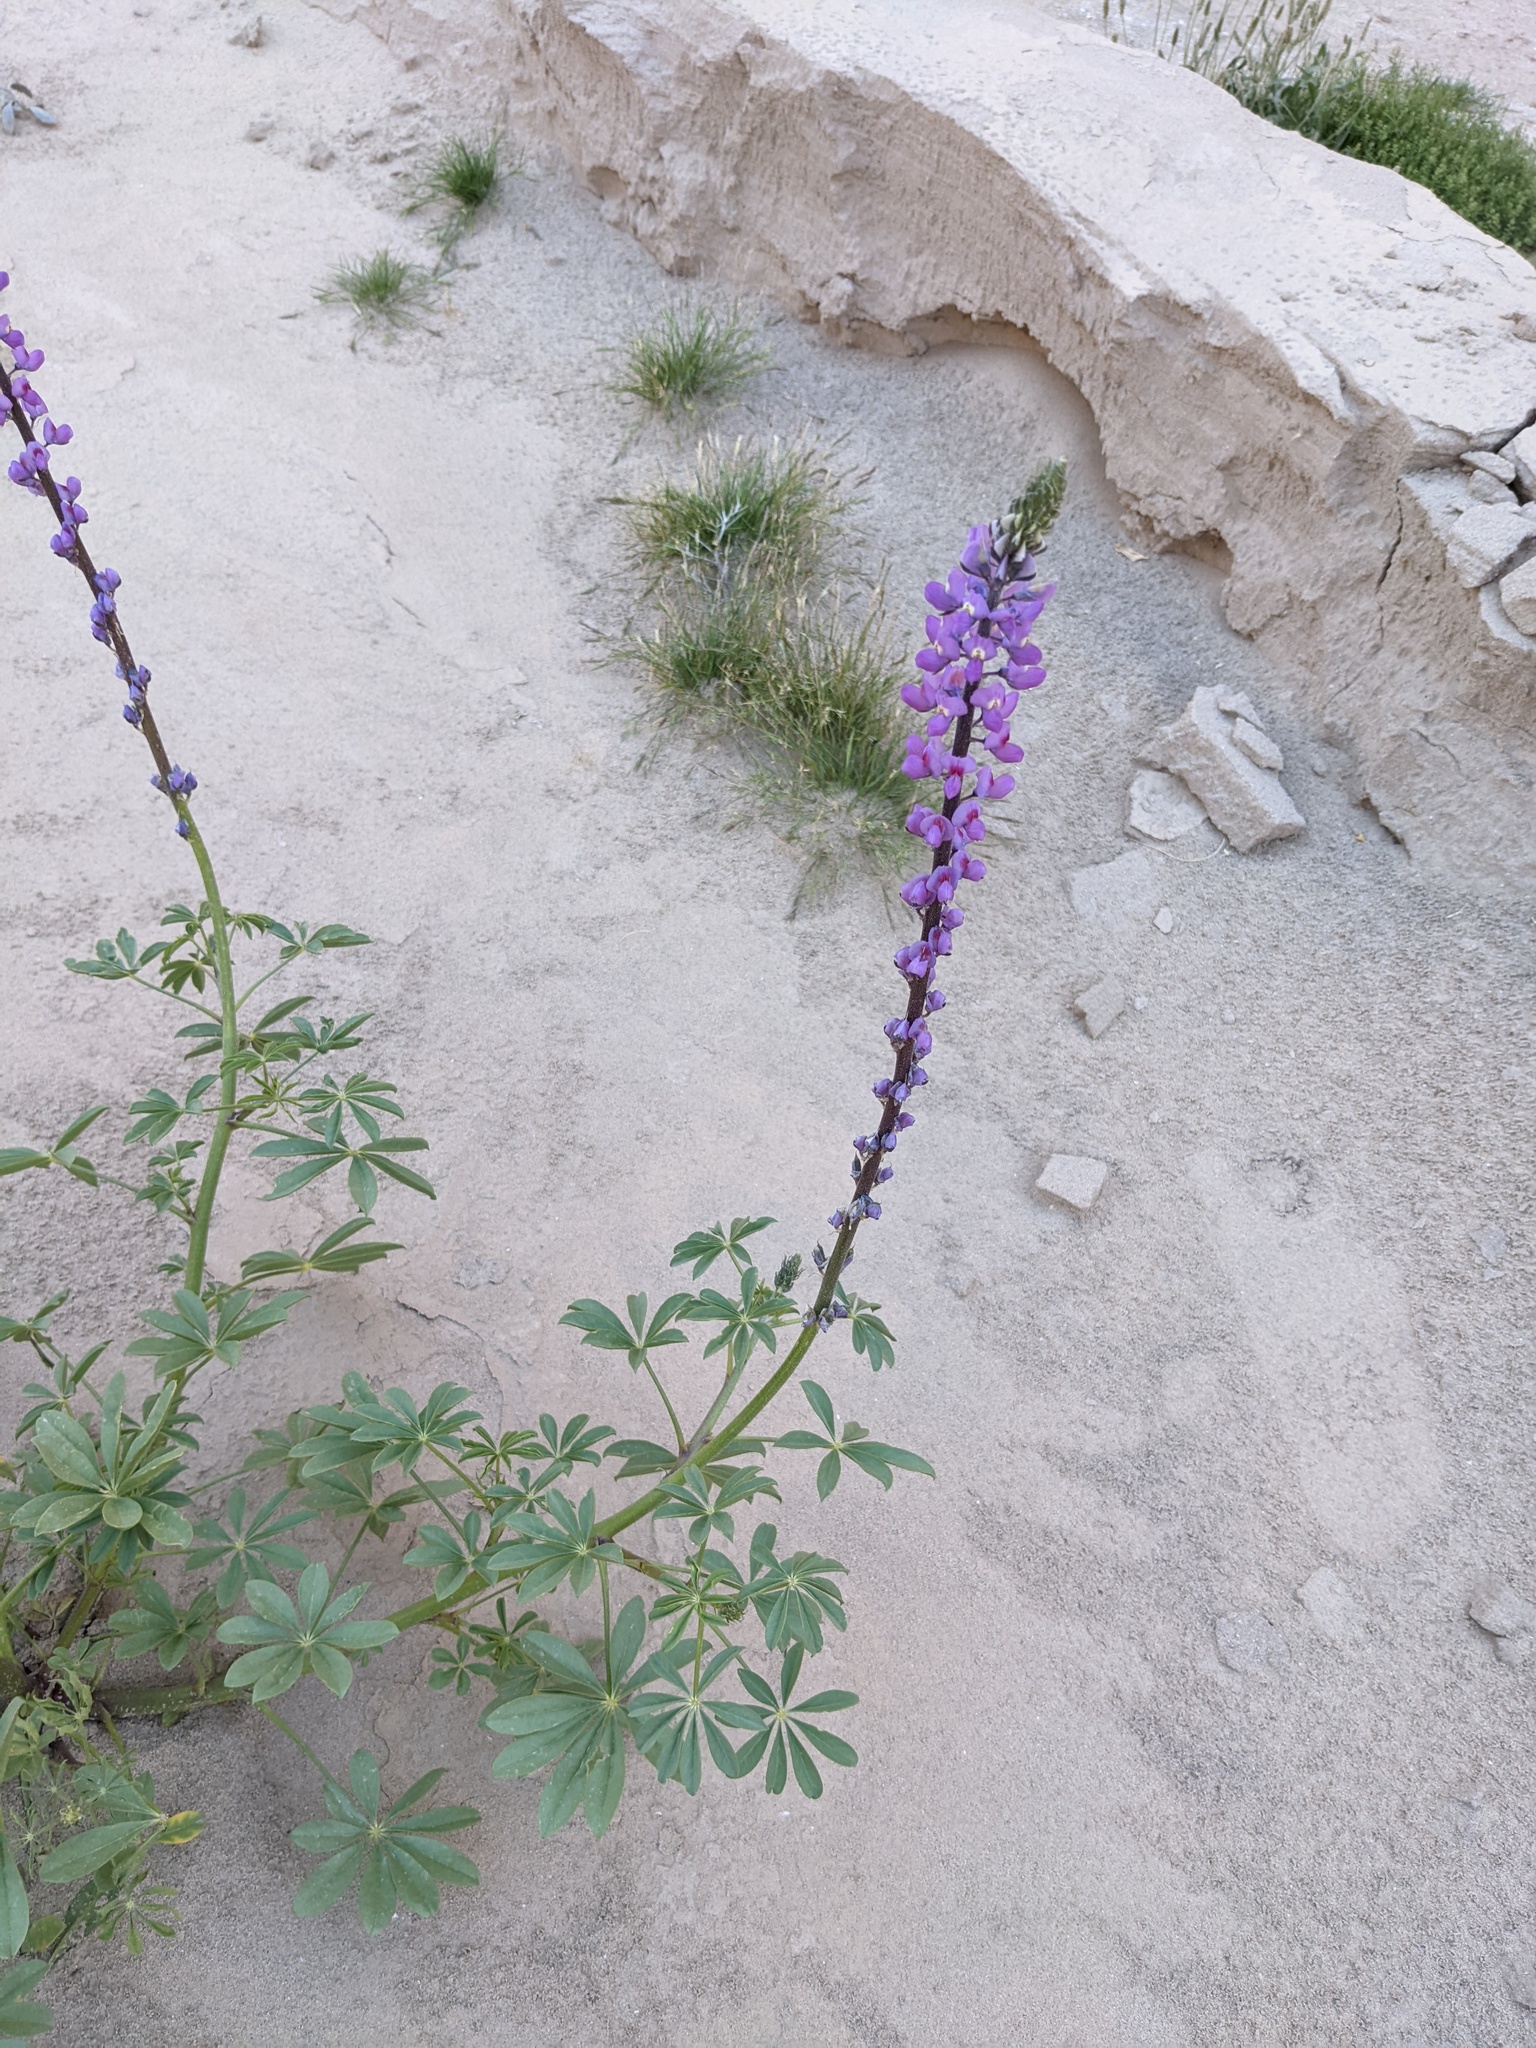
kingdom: Plantae
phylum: Tracheophyta
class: Magnoliopsida
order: Fabales
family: Fabaceae
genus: Lupinus
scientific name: Lupinus arizonicus
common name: Arizona lupine
